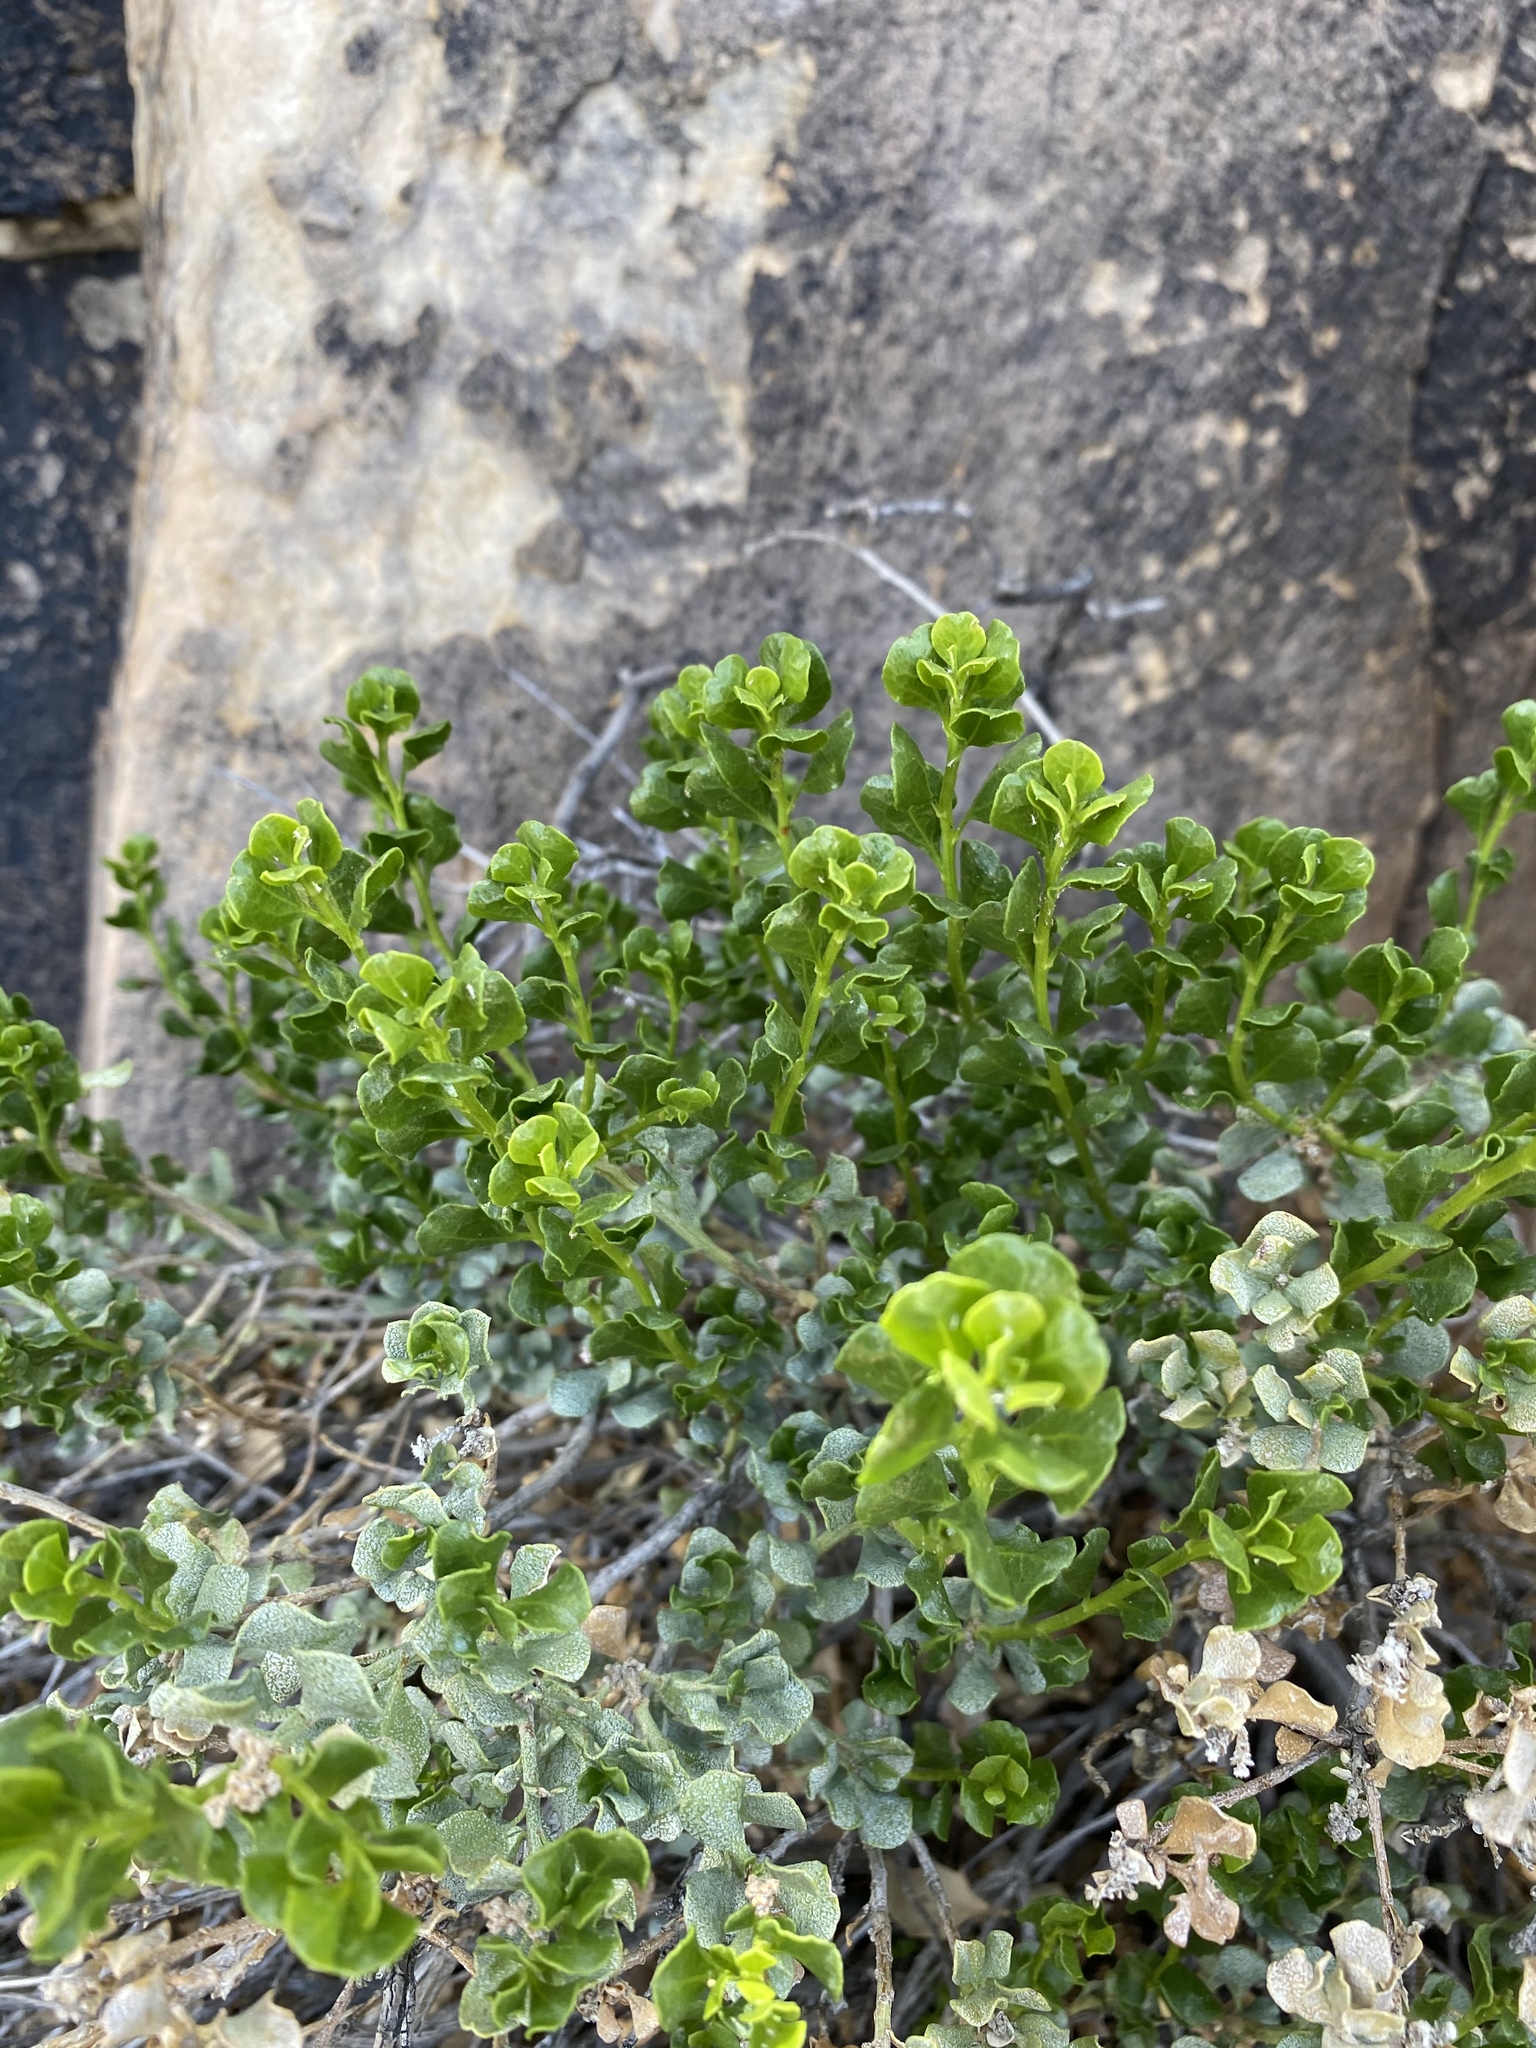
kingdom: Plantae
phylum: Tracheophyta
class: Magnoliopsida
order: Asterales
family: Asteraceae
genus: Ericameria
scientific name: Ericameria cuneata
